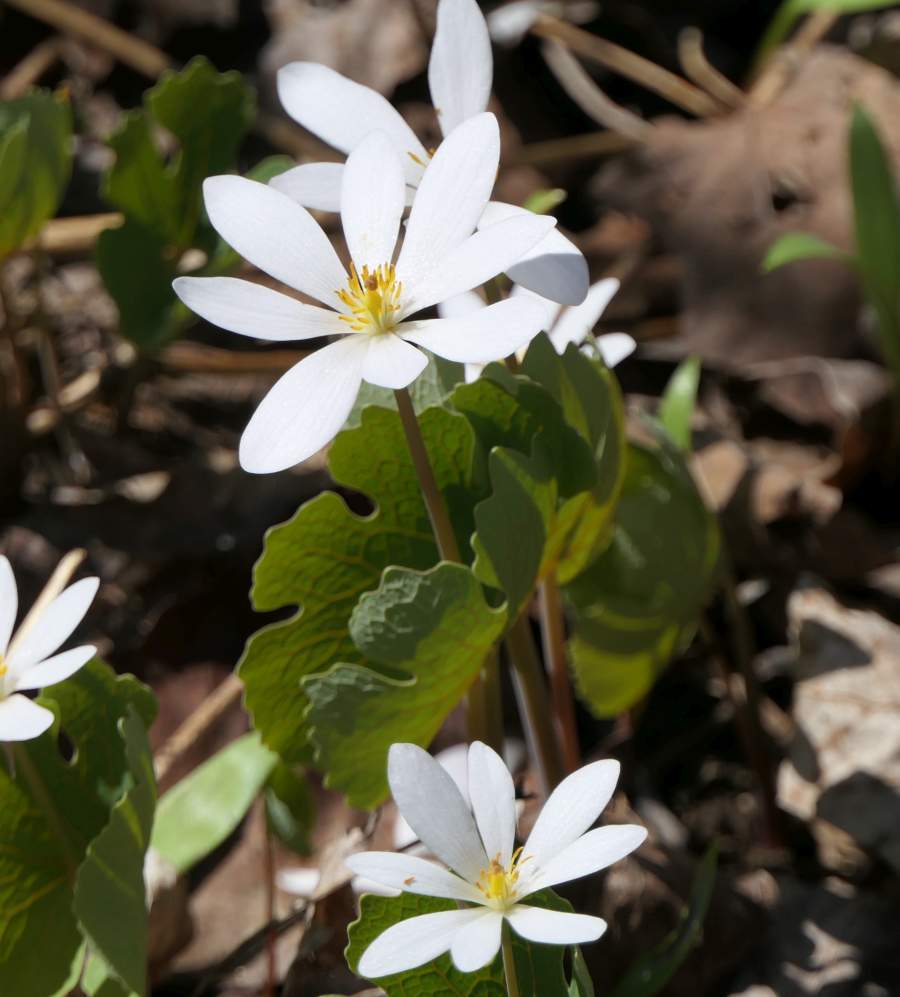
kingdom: Plantae
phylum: Tracheophyta
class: Magnoliopsida
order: Ranunculales
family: Papaveraceae
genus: Sanguinaria
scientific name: Sanguinaria canadensis
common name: Bloodroot
